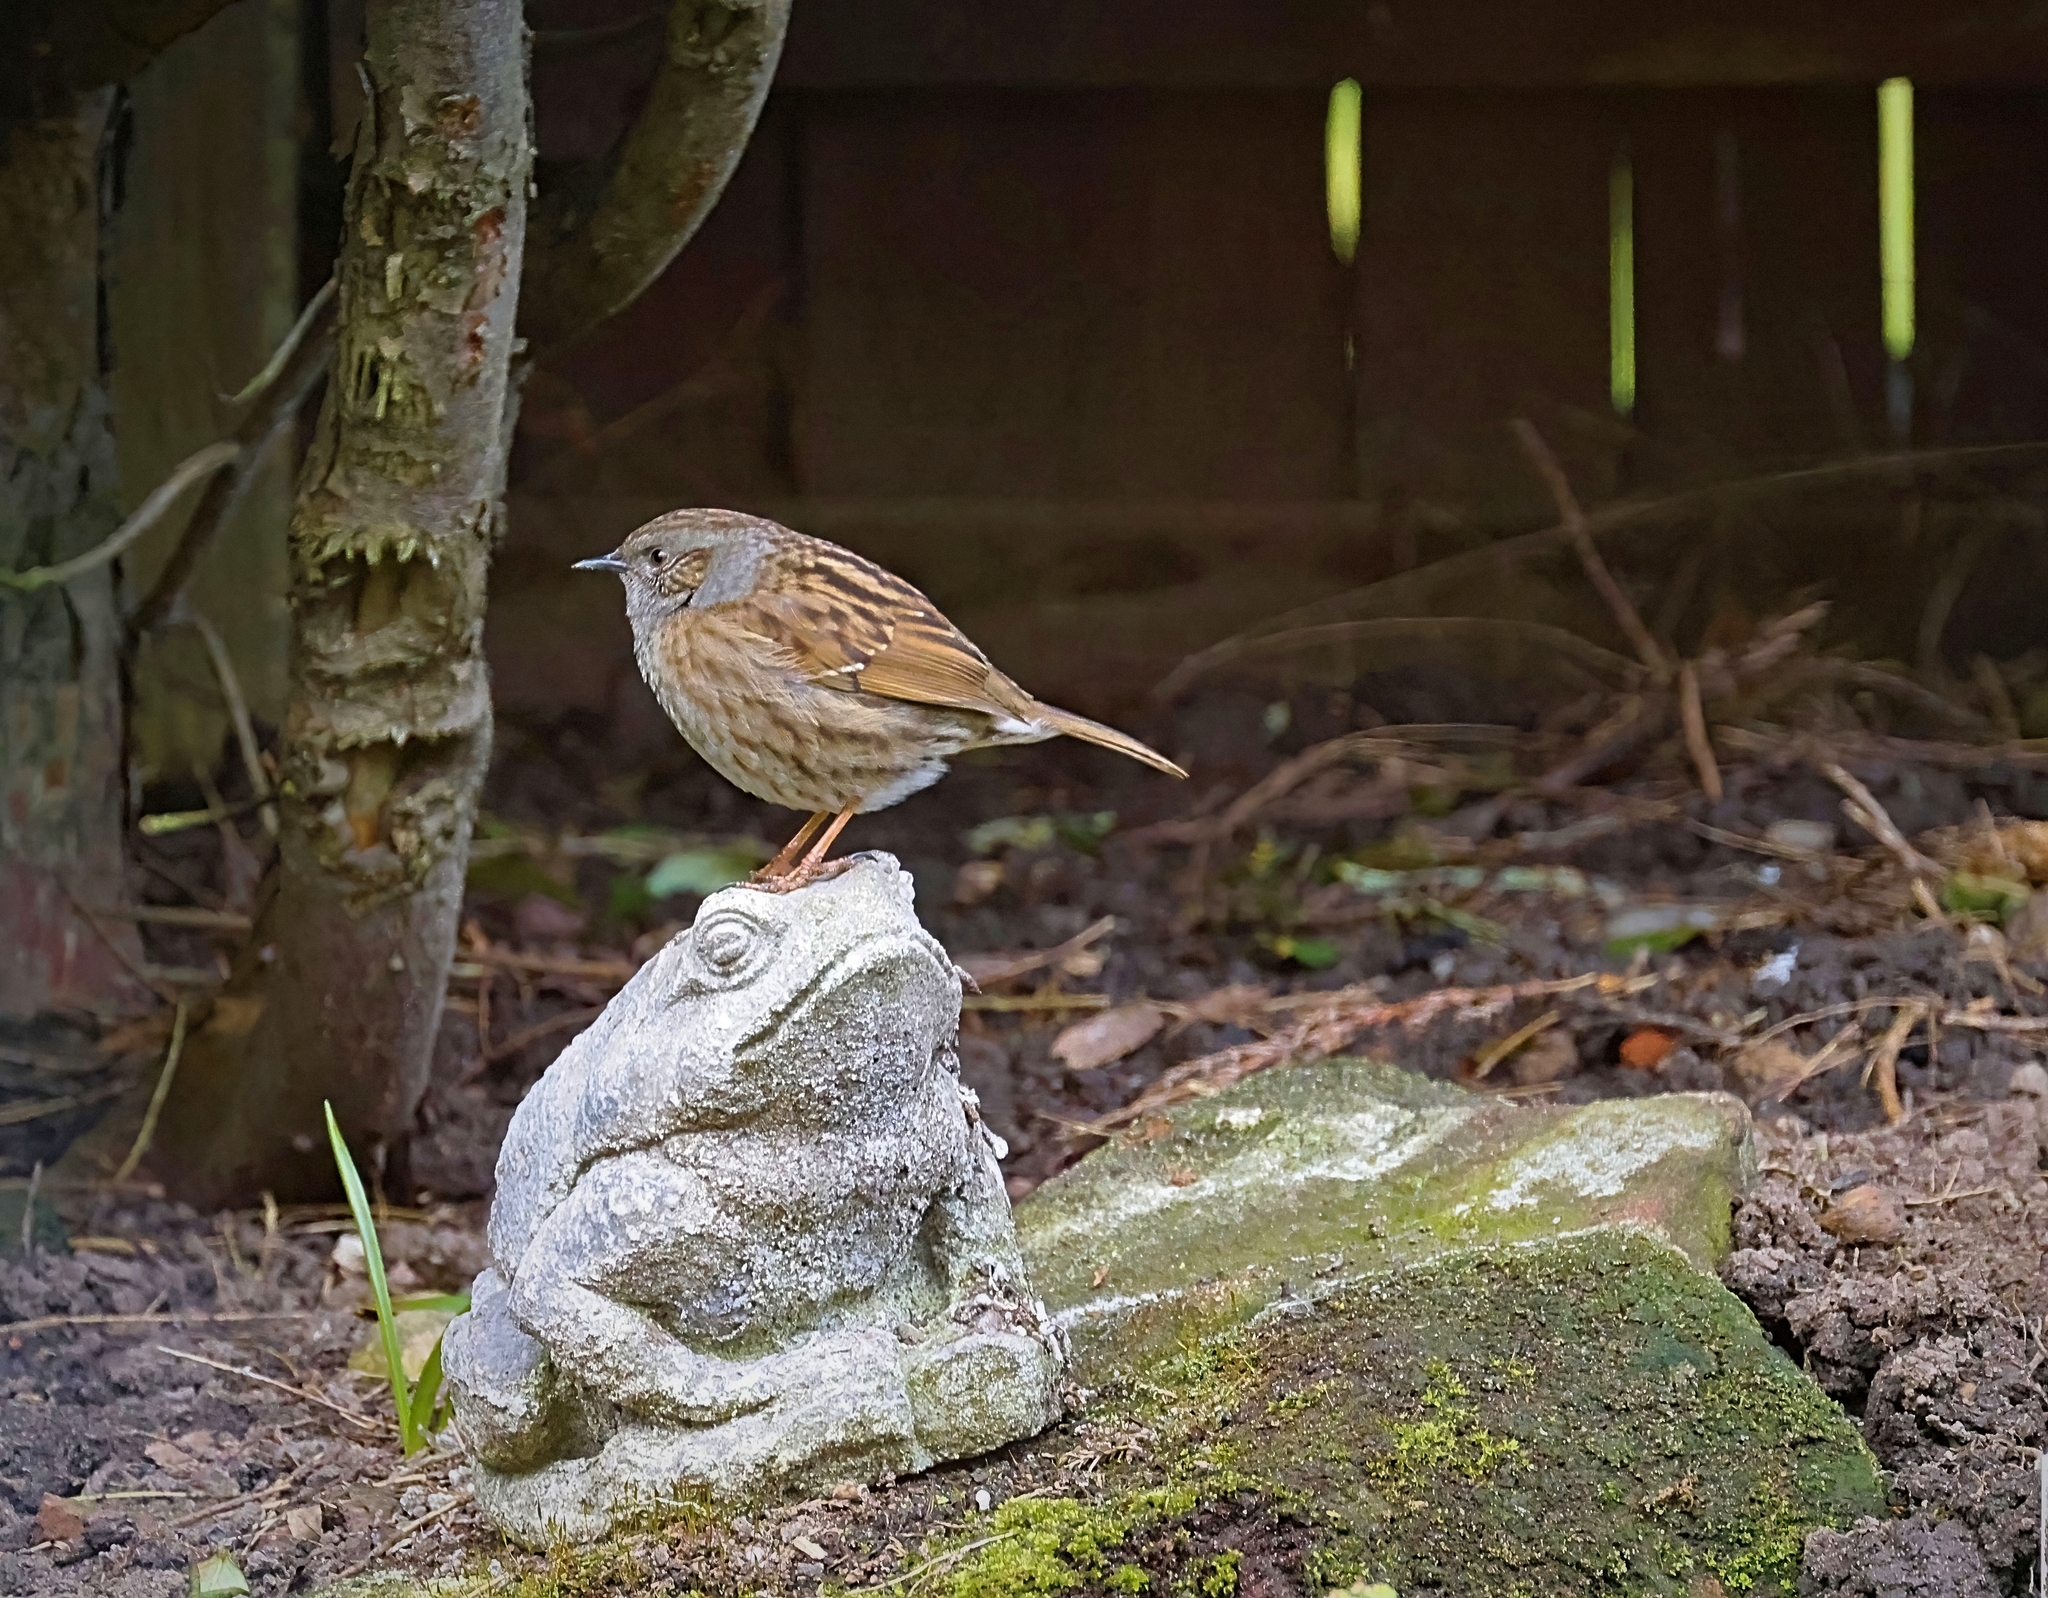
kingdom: Animalia
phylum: Chordata
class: Aves
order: Passeriformes
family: Prunellidae
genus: Prunella
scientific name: Prunella modularis
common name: Dunnock
